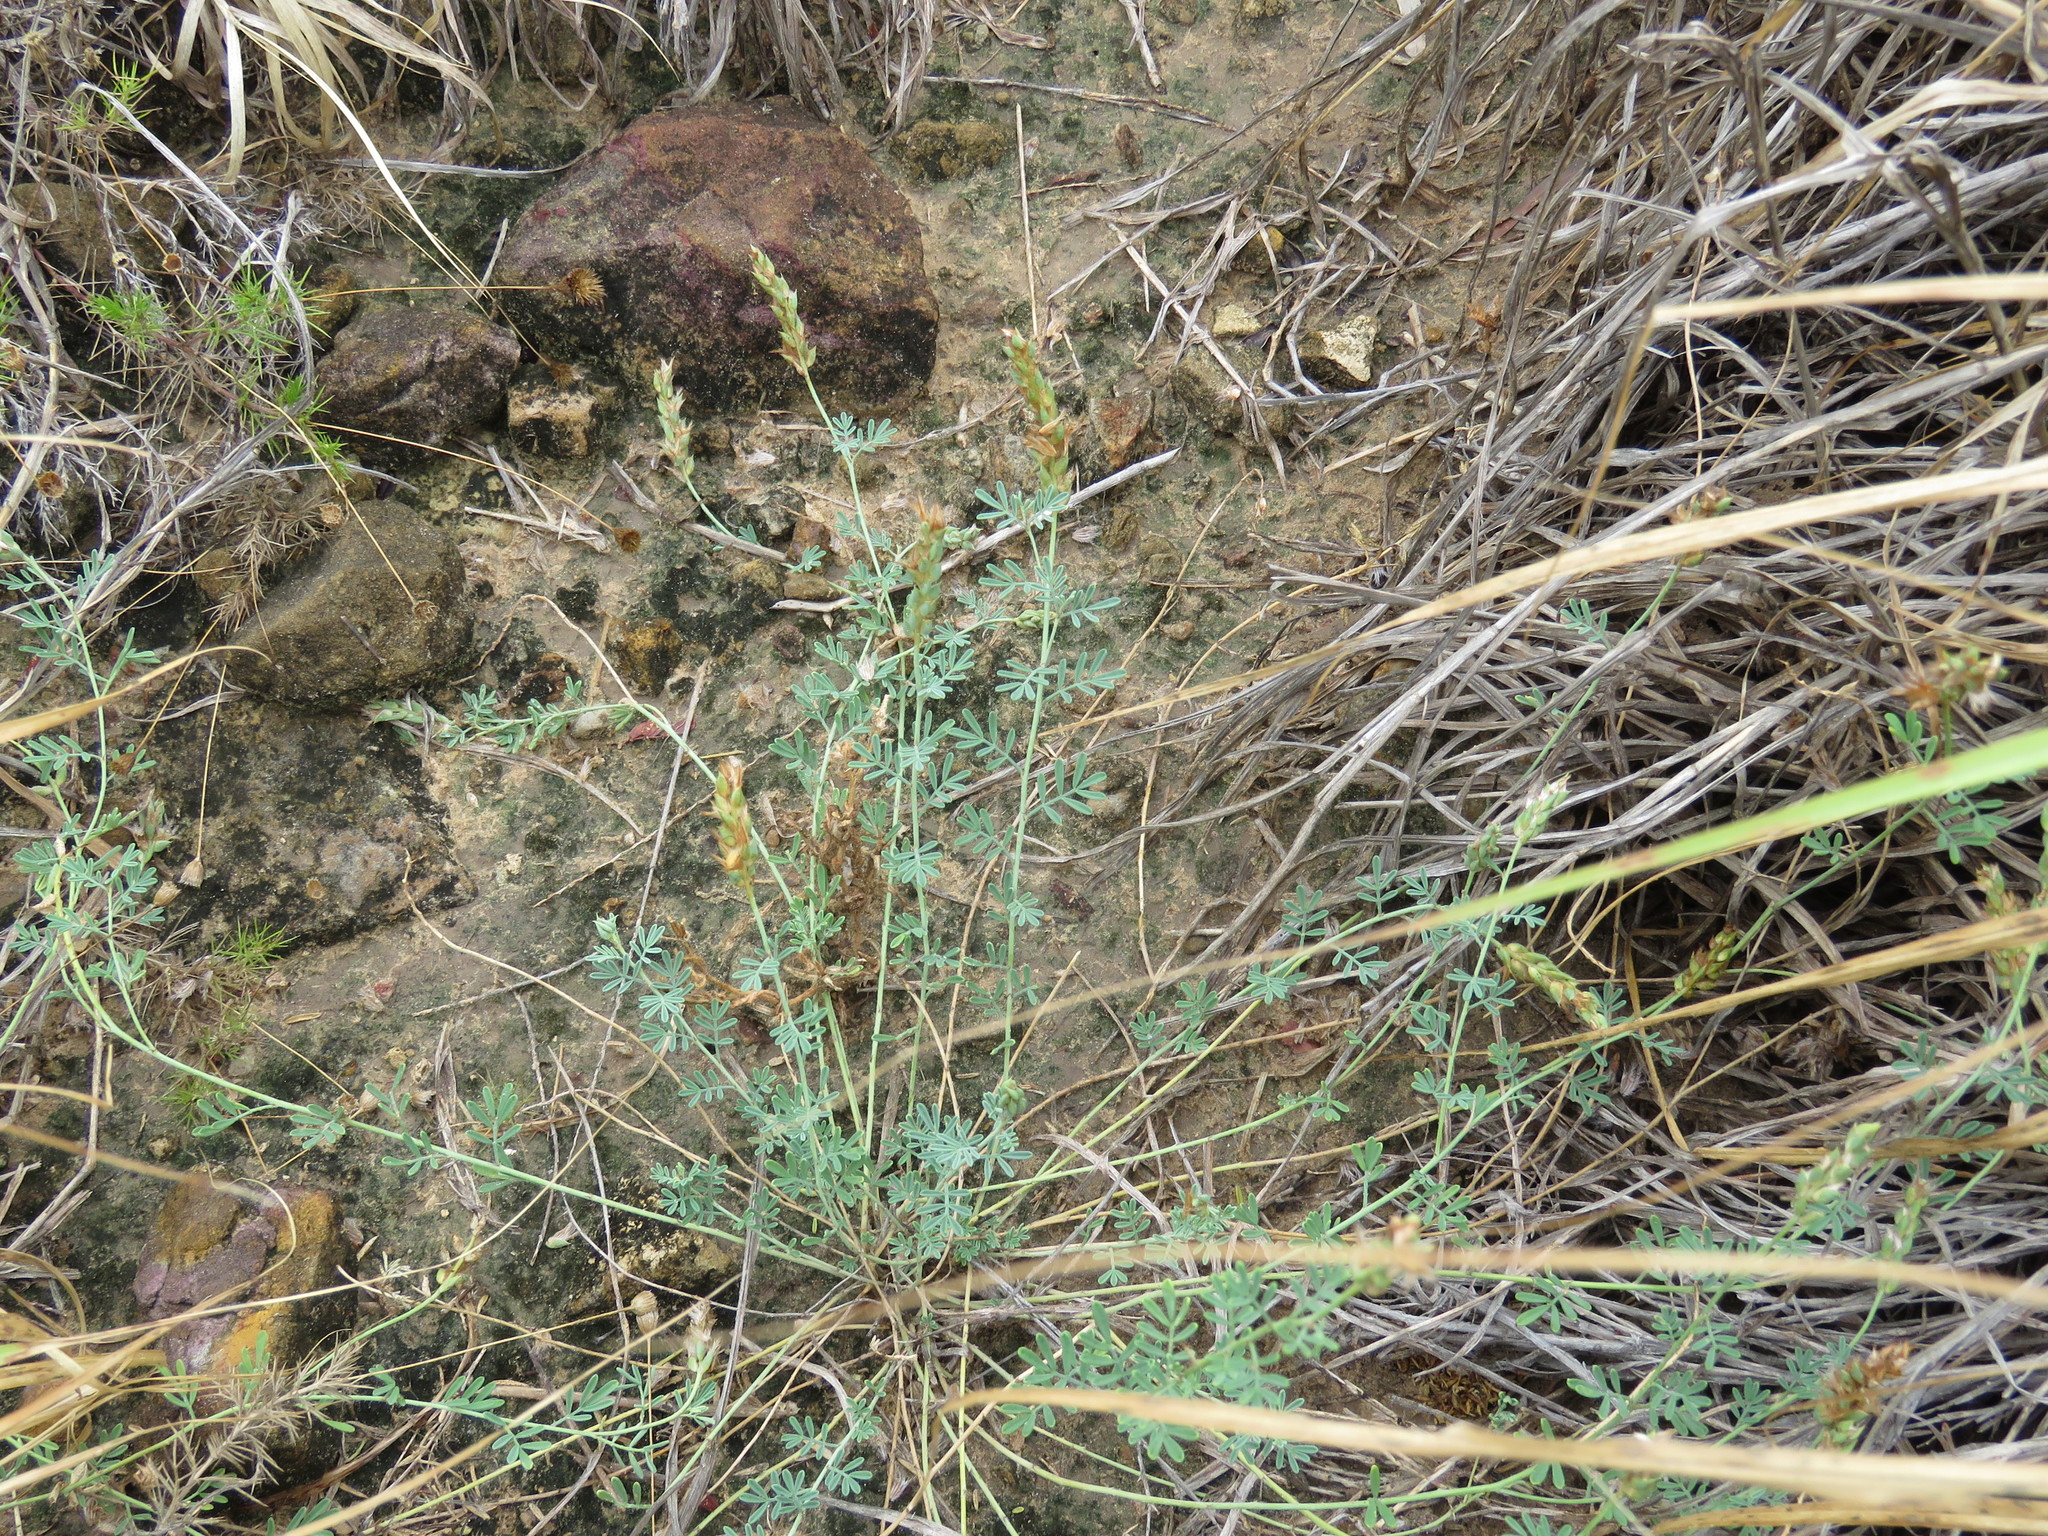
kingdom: Plantae
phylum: Tracheophyta
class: Magnoliopsida
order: Fabales
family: Fabaceae
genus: Dalea
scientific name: Dalea pogonathera
